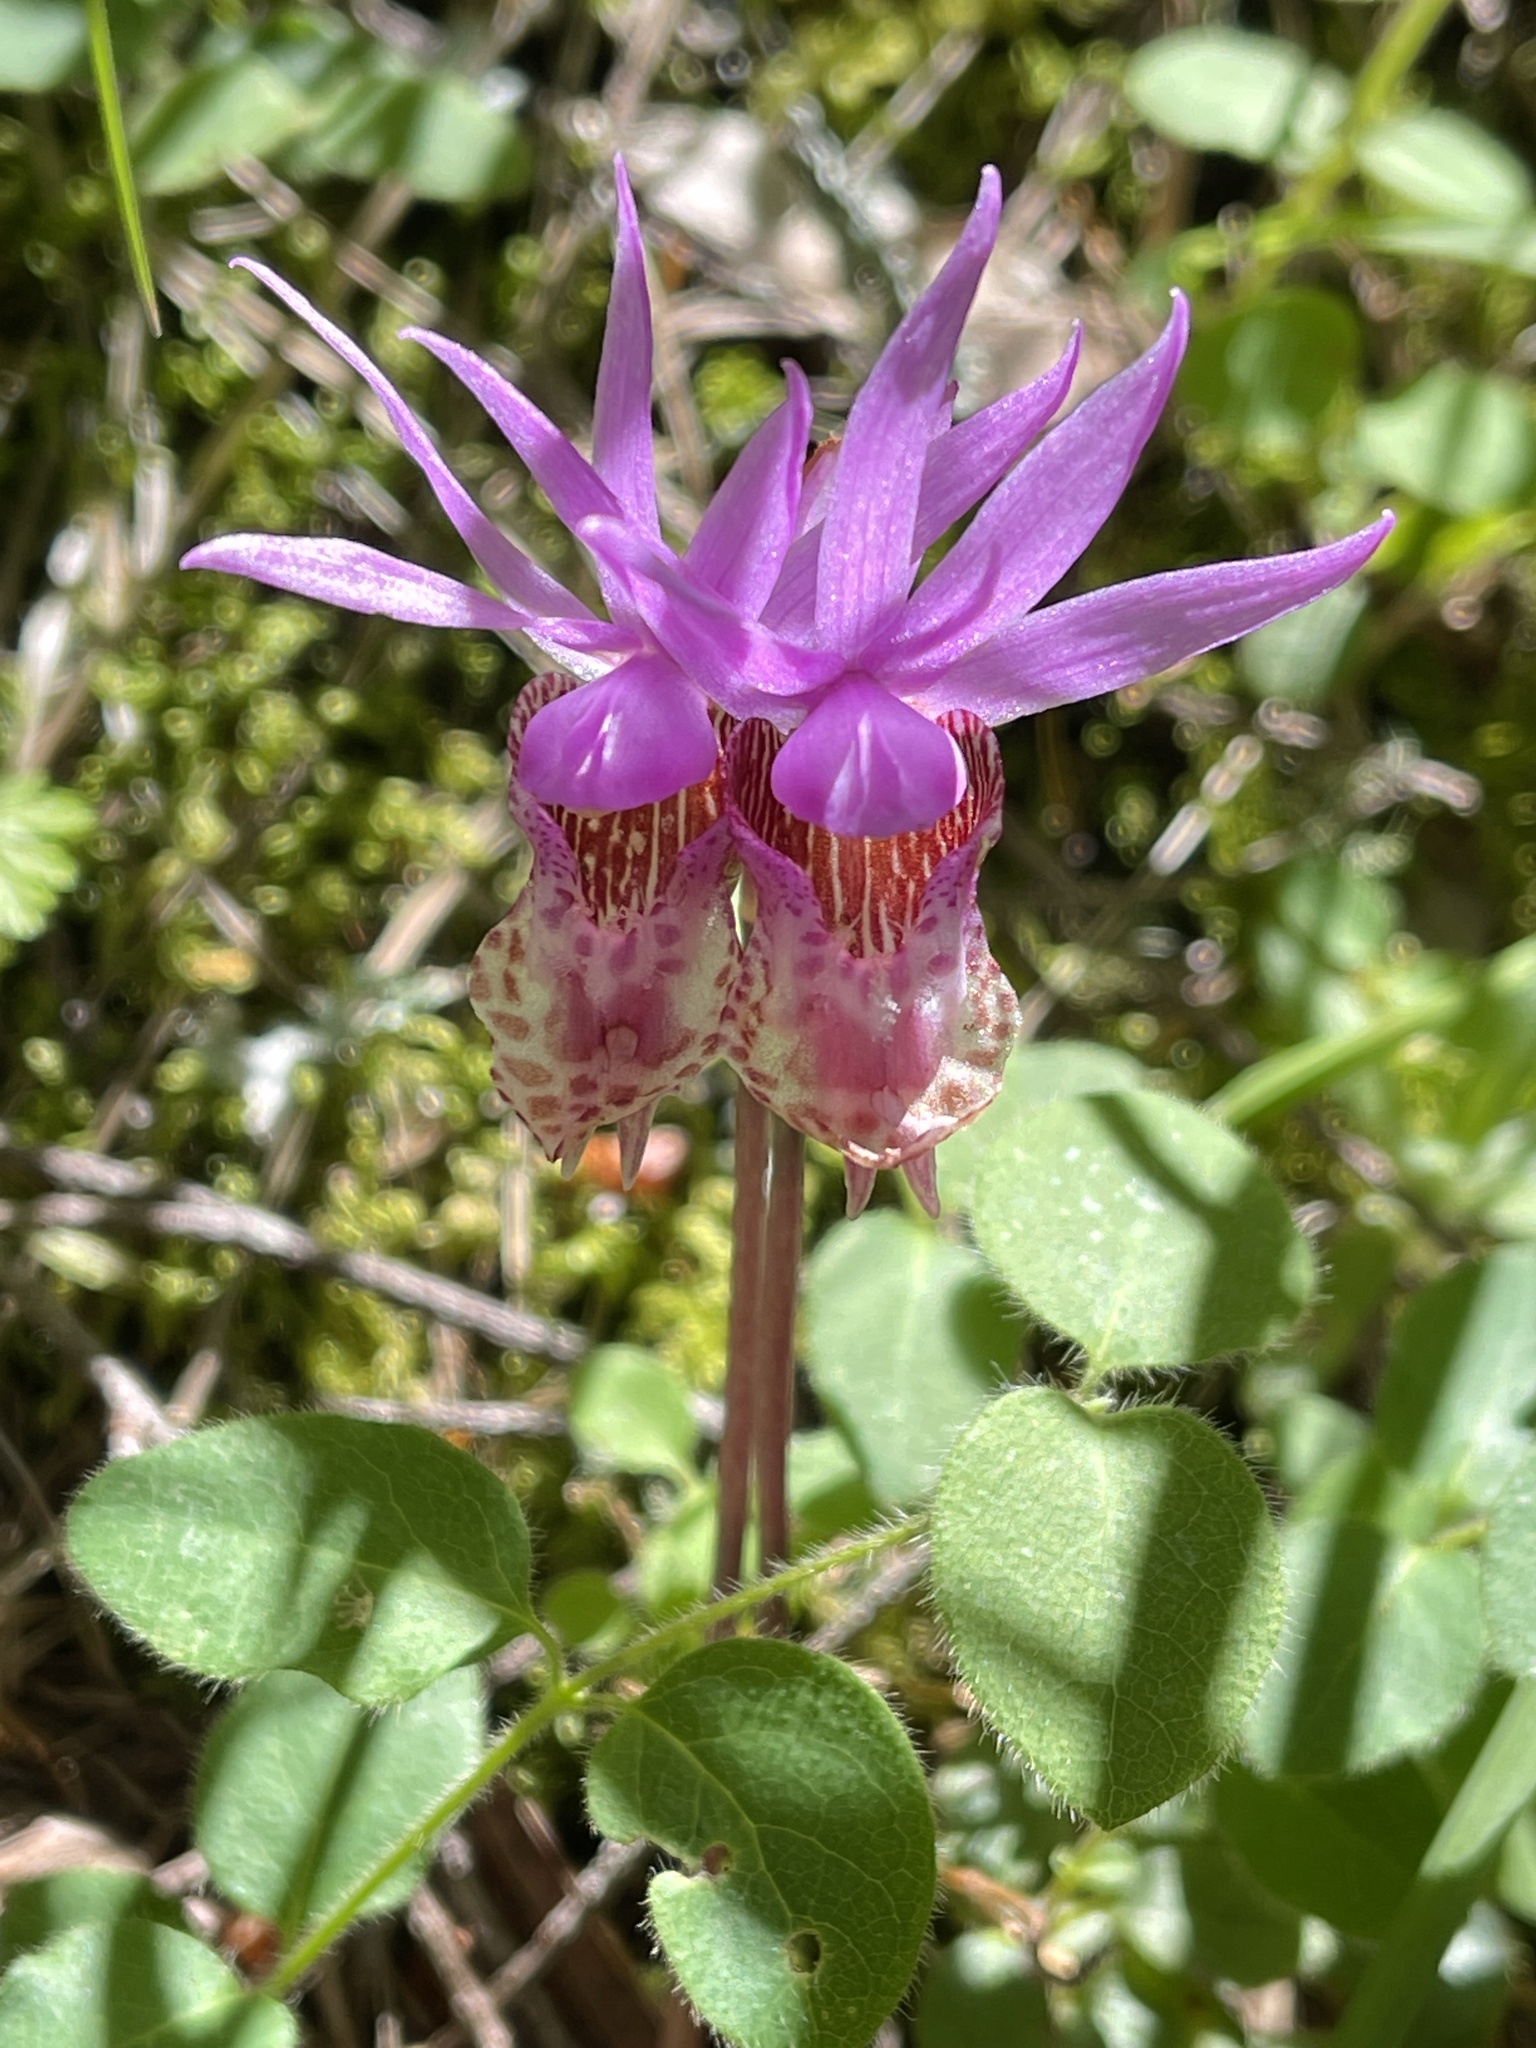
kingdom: Plantae
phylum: Tracheophyta
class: Liliopsida
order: Asparagales
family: Orchidaceae
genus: Calypso
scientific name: Calypso bulbosa
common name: Calypso
